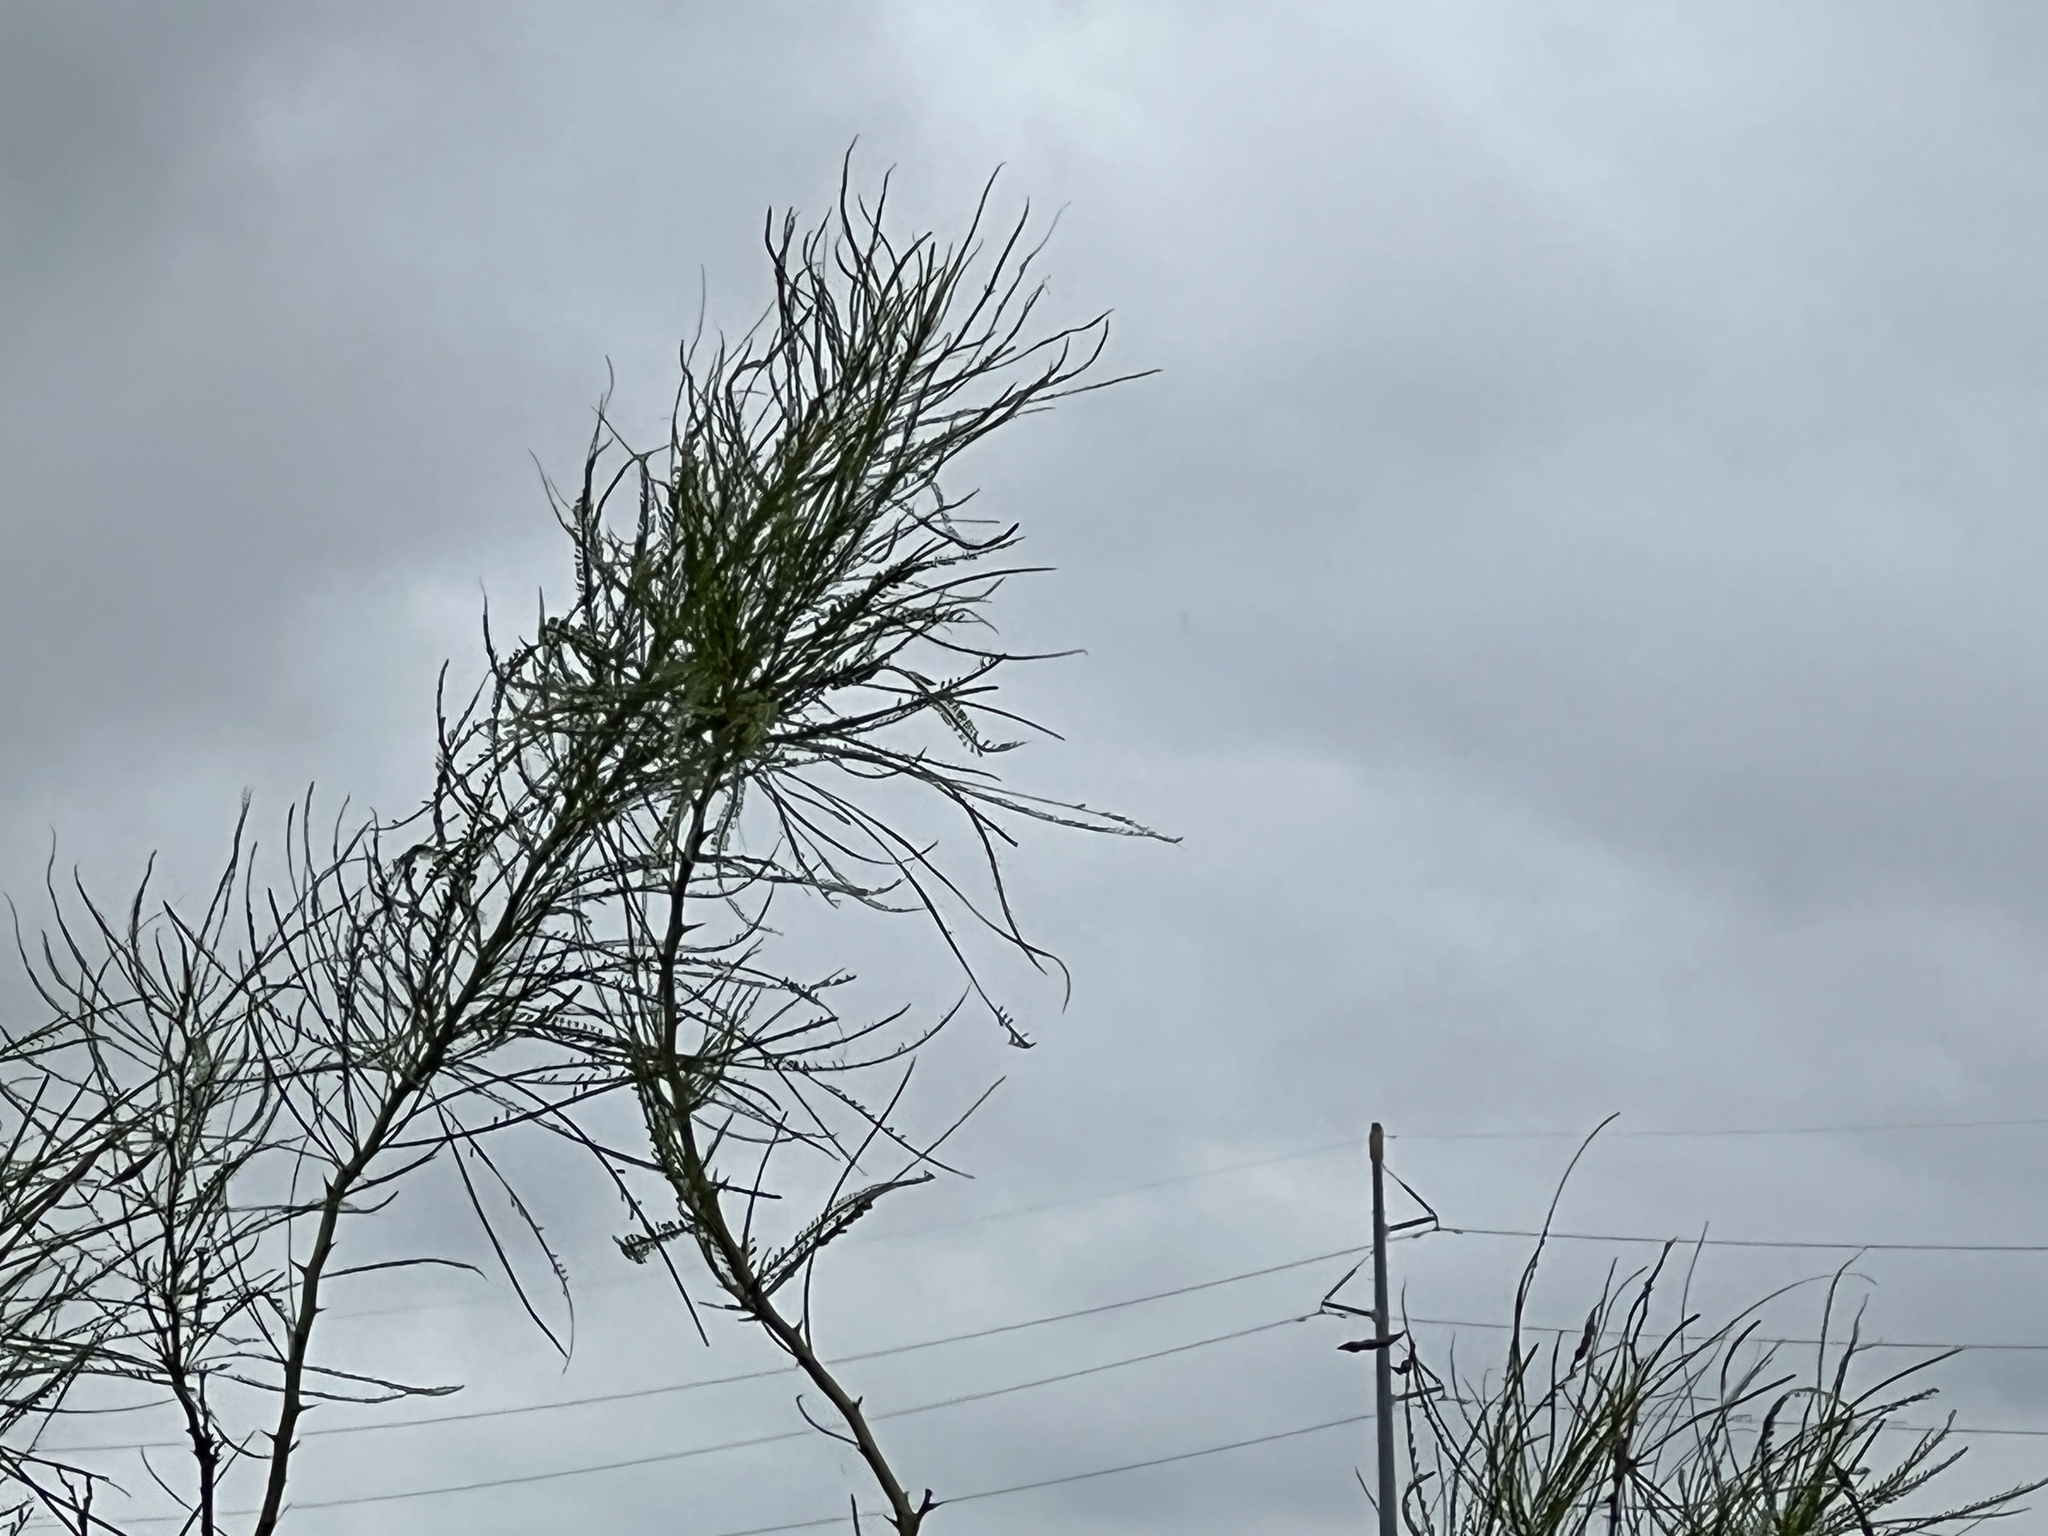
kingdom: Plantae
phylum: Tracheophyta
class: Magnoliopsida
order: Fabales
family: Fabaceae
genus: Parkinsonia
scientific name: Parkinsonia aculeata
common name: Jerusalem thorn
